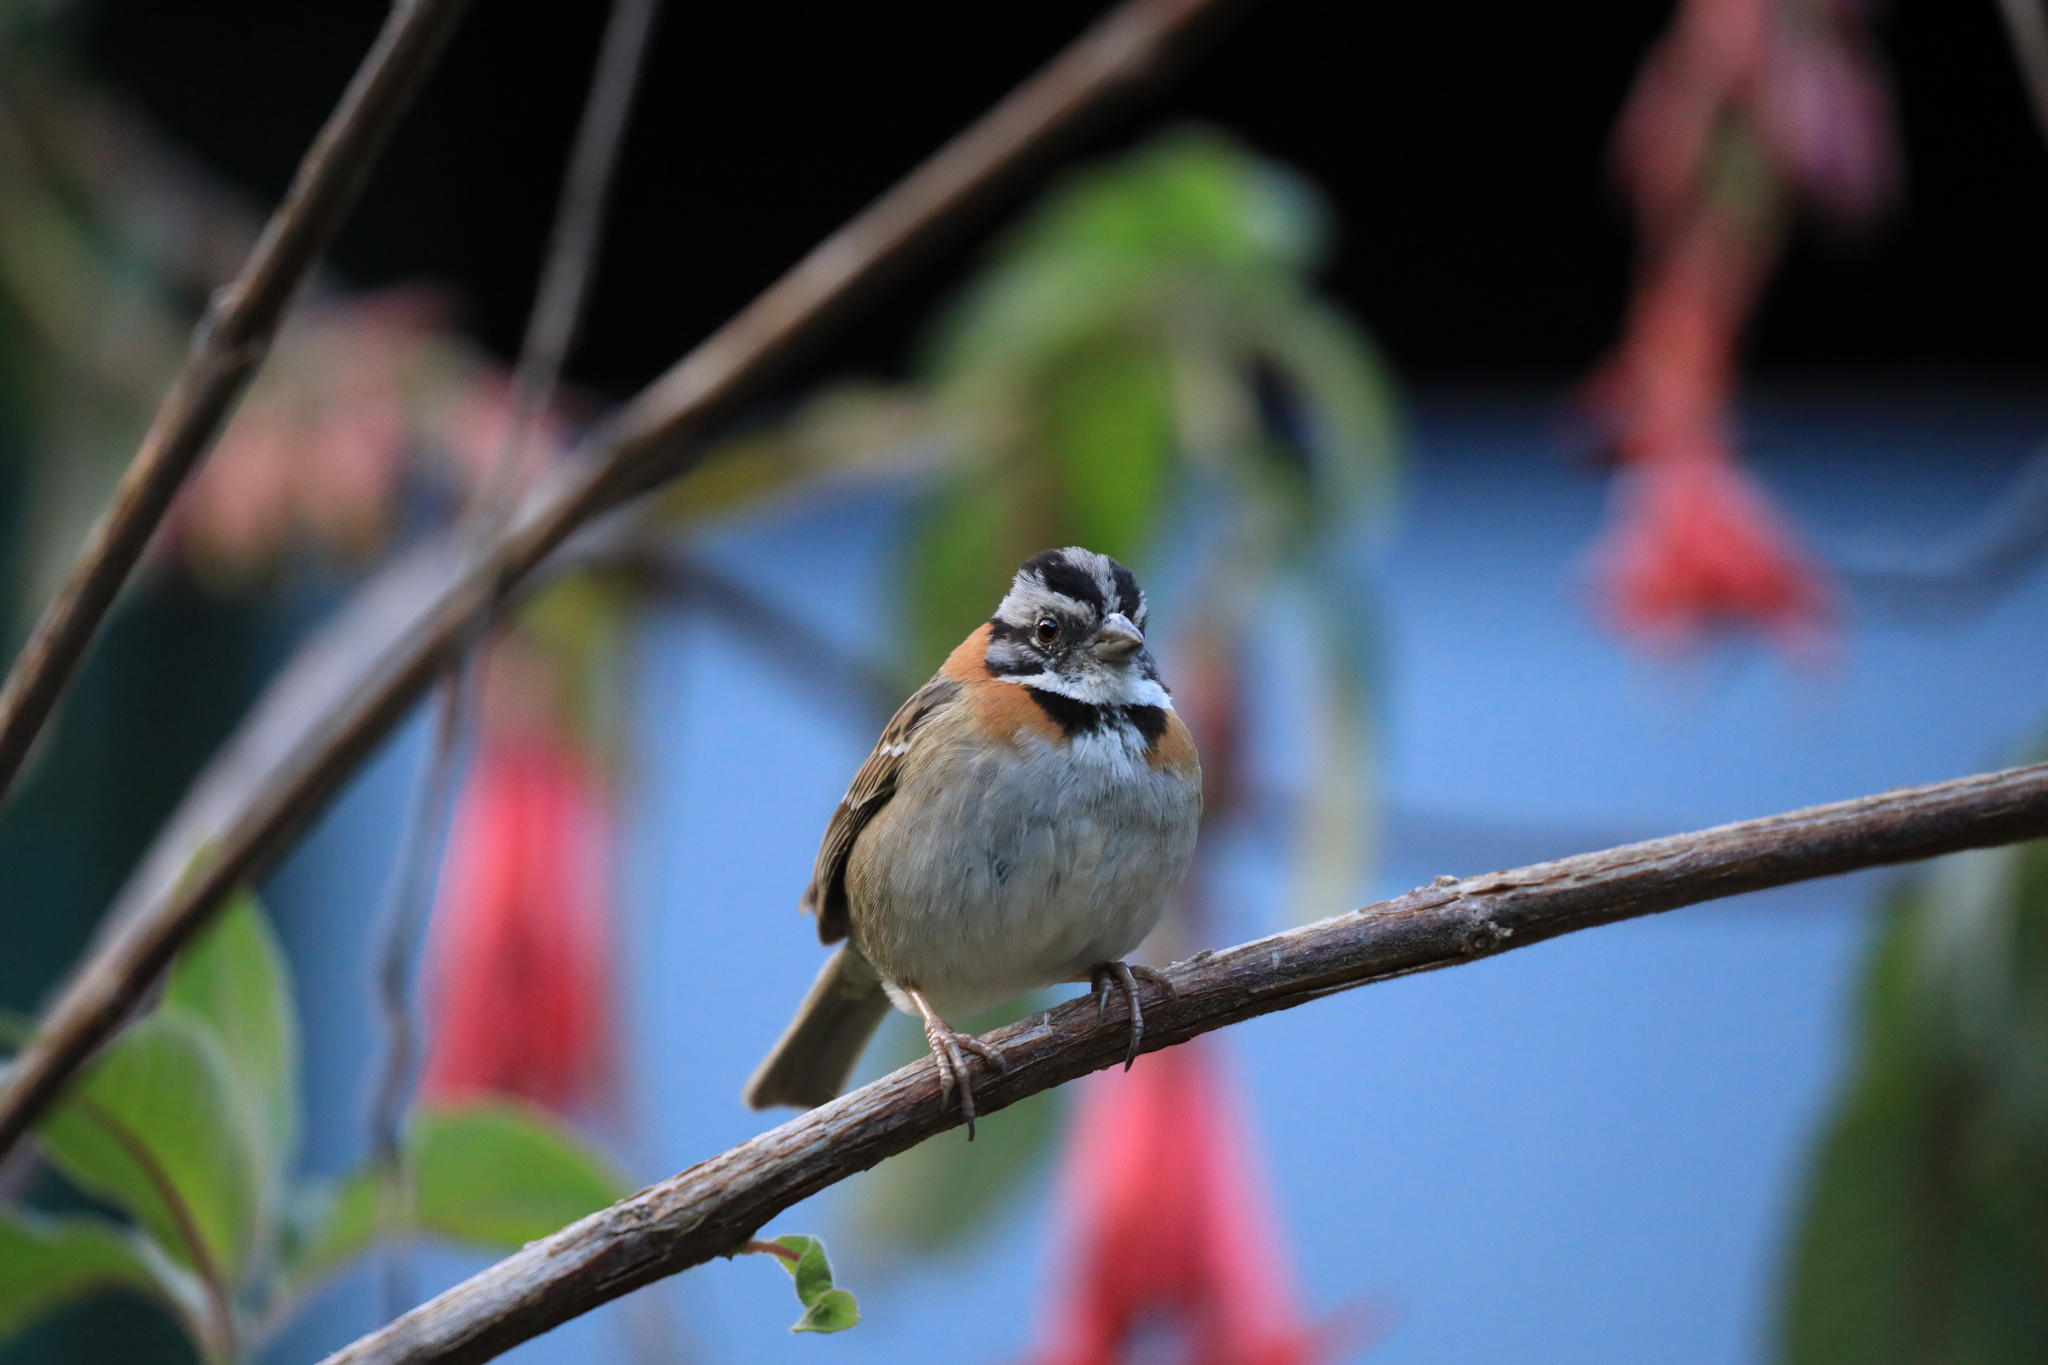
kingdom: Animalia
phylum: Chordata
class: Aves
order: Passeriformes
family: Passerellidae
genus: Zonotrichia
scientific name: Zonotrichia capensis
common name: Rufous-collared sparrow
